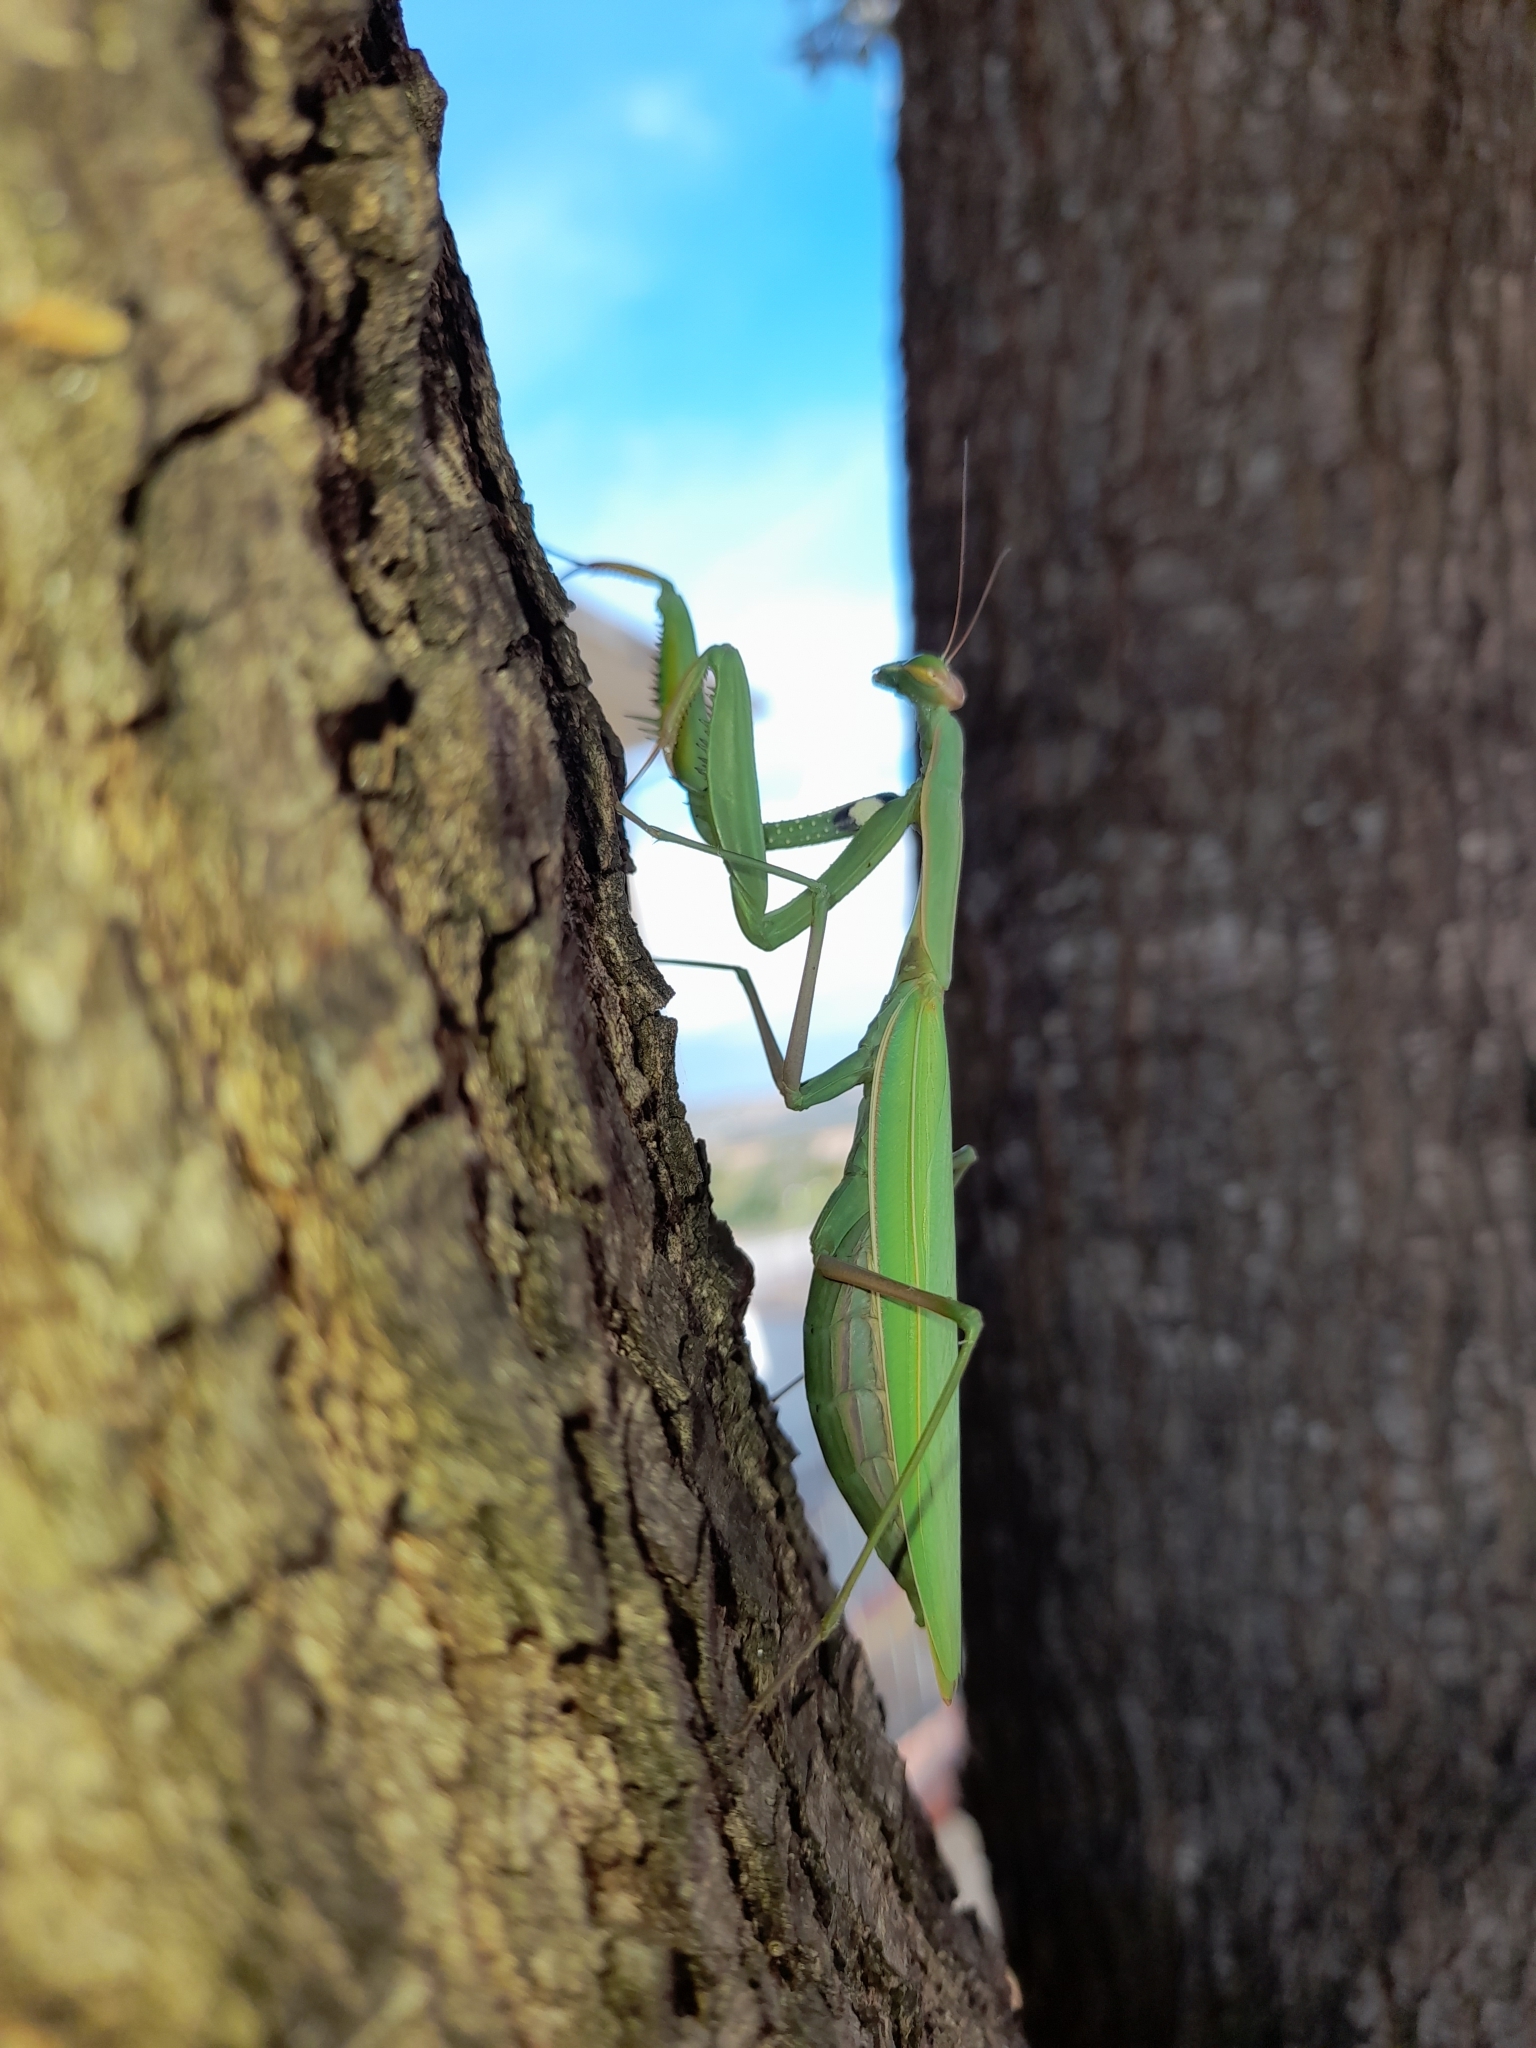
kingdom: Animalia
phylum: Arthropoda
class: Insecta
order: Mantodea
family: Mantidae
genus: Mantis
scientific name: Mantis religiosa
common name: Praying mantis
